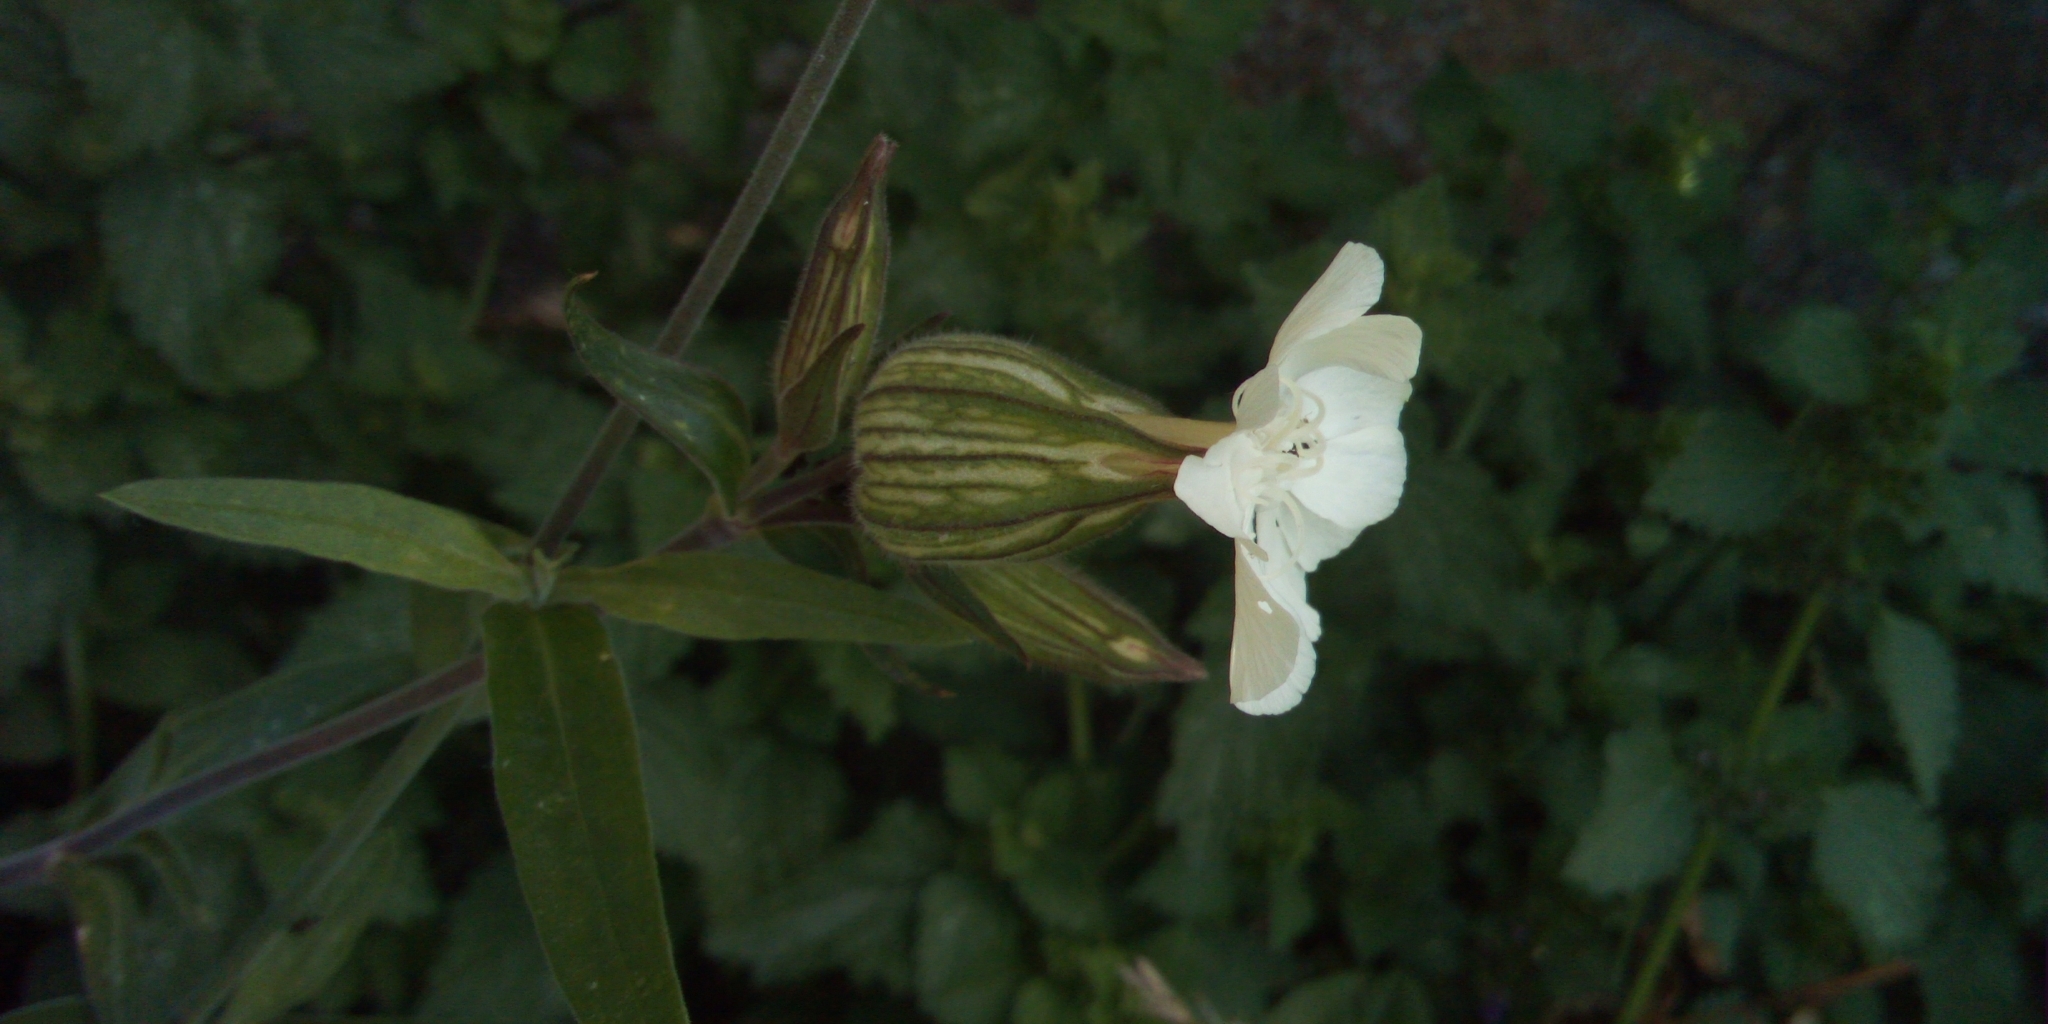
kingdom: Plantae
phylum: Tracheophyta
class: Magnoliopsida
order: Caryophyllales
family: Caryophyllaceae
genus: Silene
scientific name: Silene latifolia
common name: White campion
